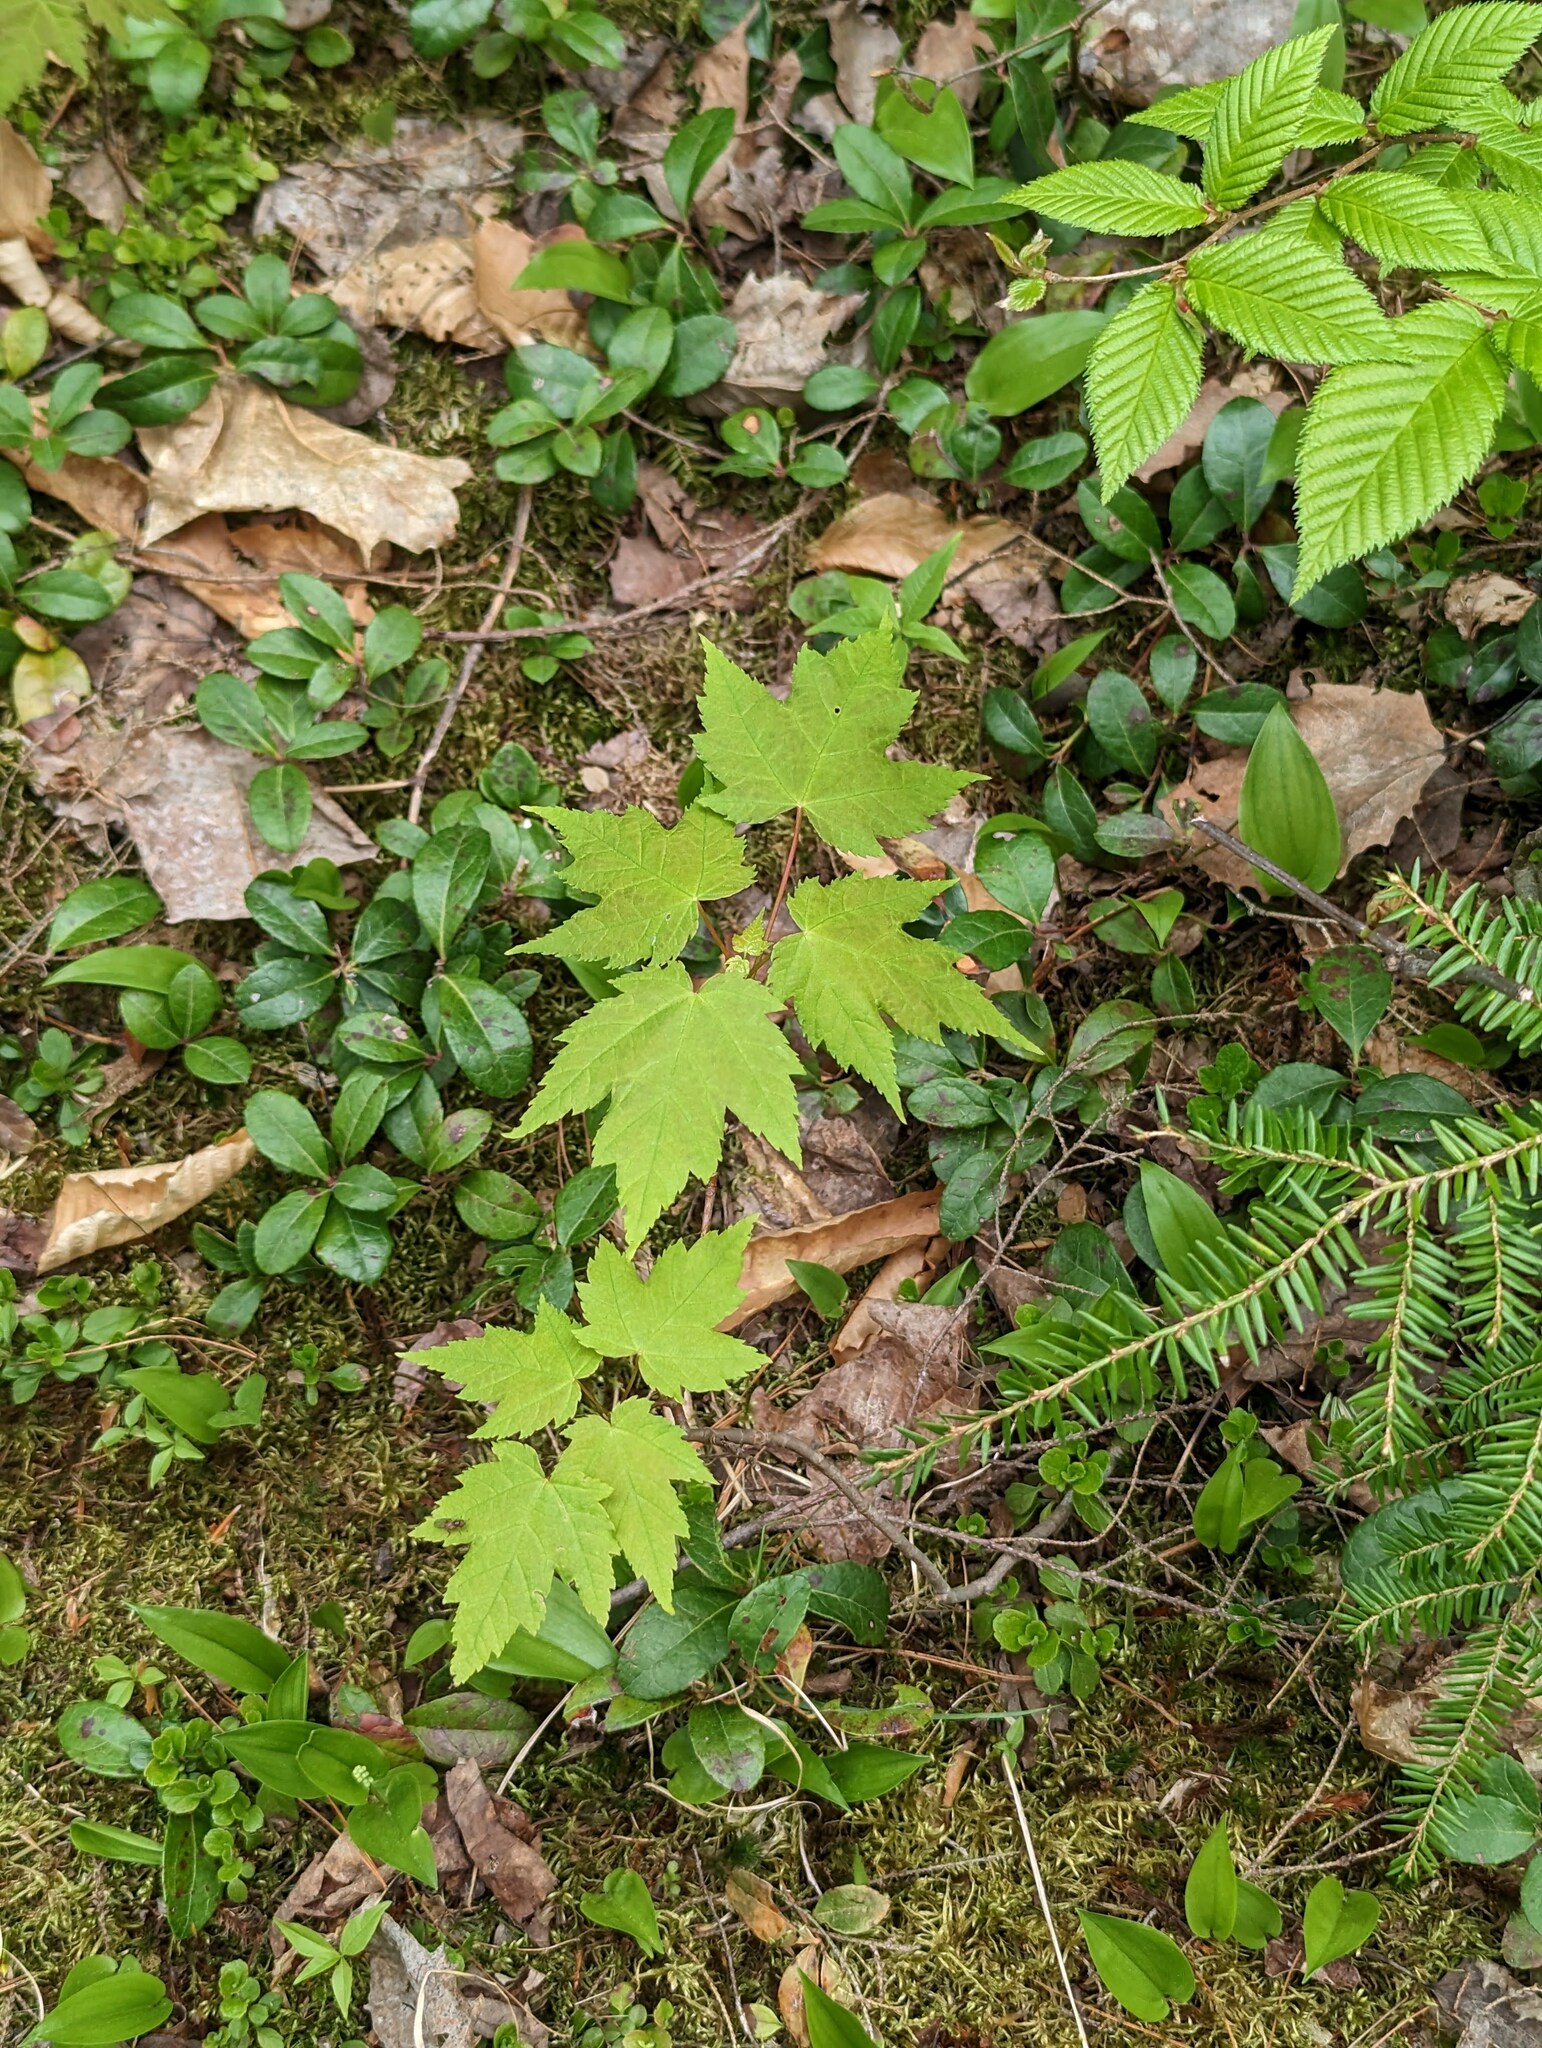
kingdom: Plantae
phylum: Tracheophyta
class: Magnoliopsida
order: Sapindales
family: Sapindaceae
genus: Acer
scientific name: Acer rubrum
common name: Red maple
